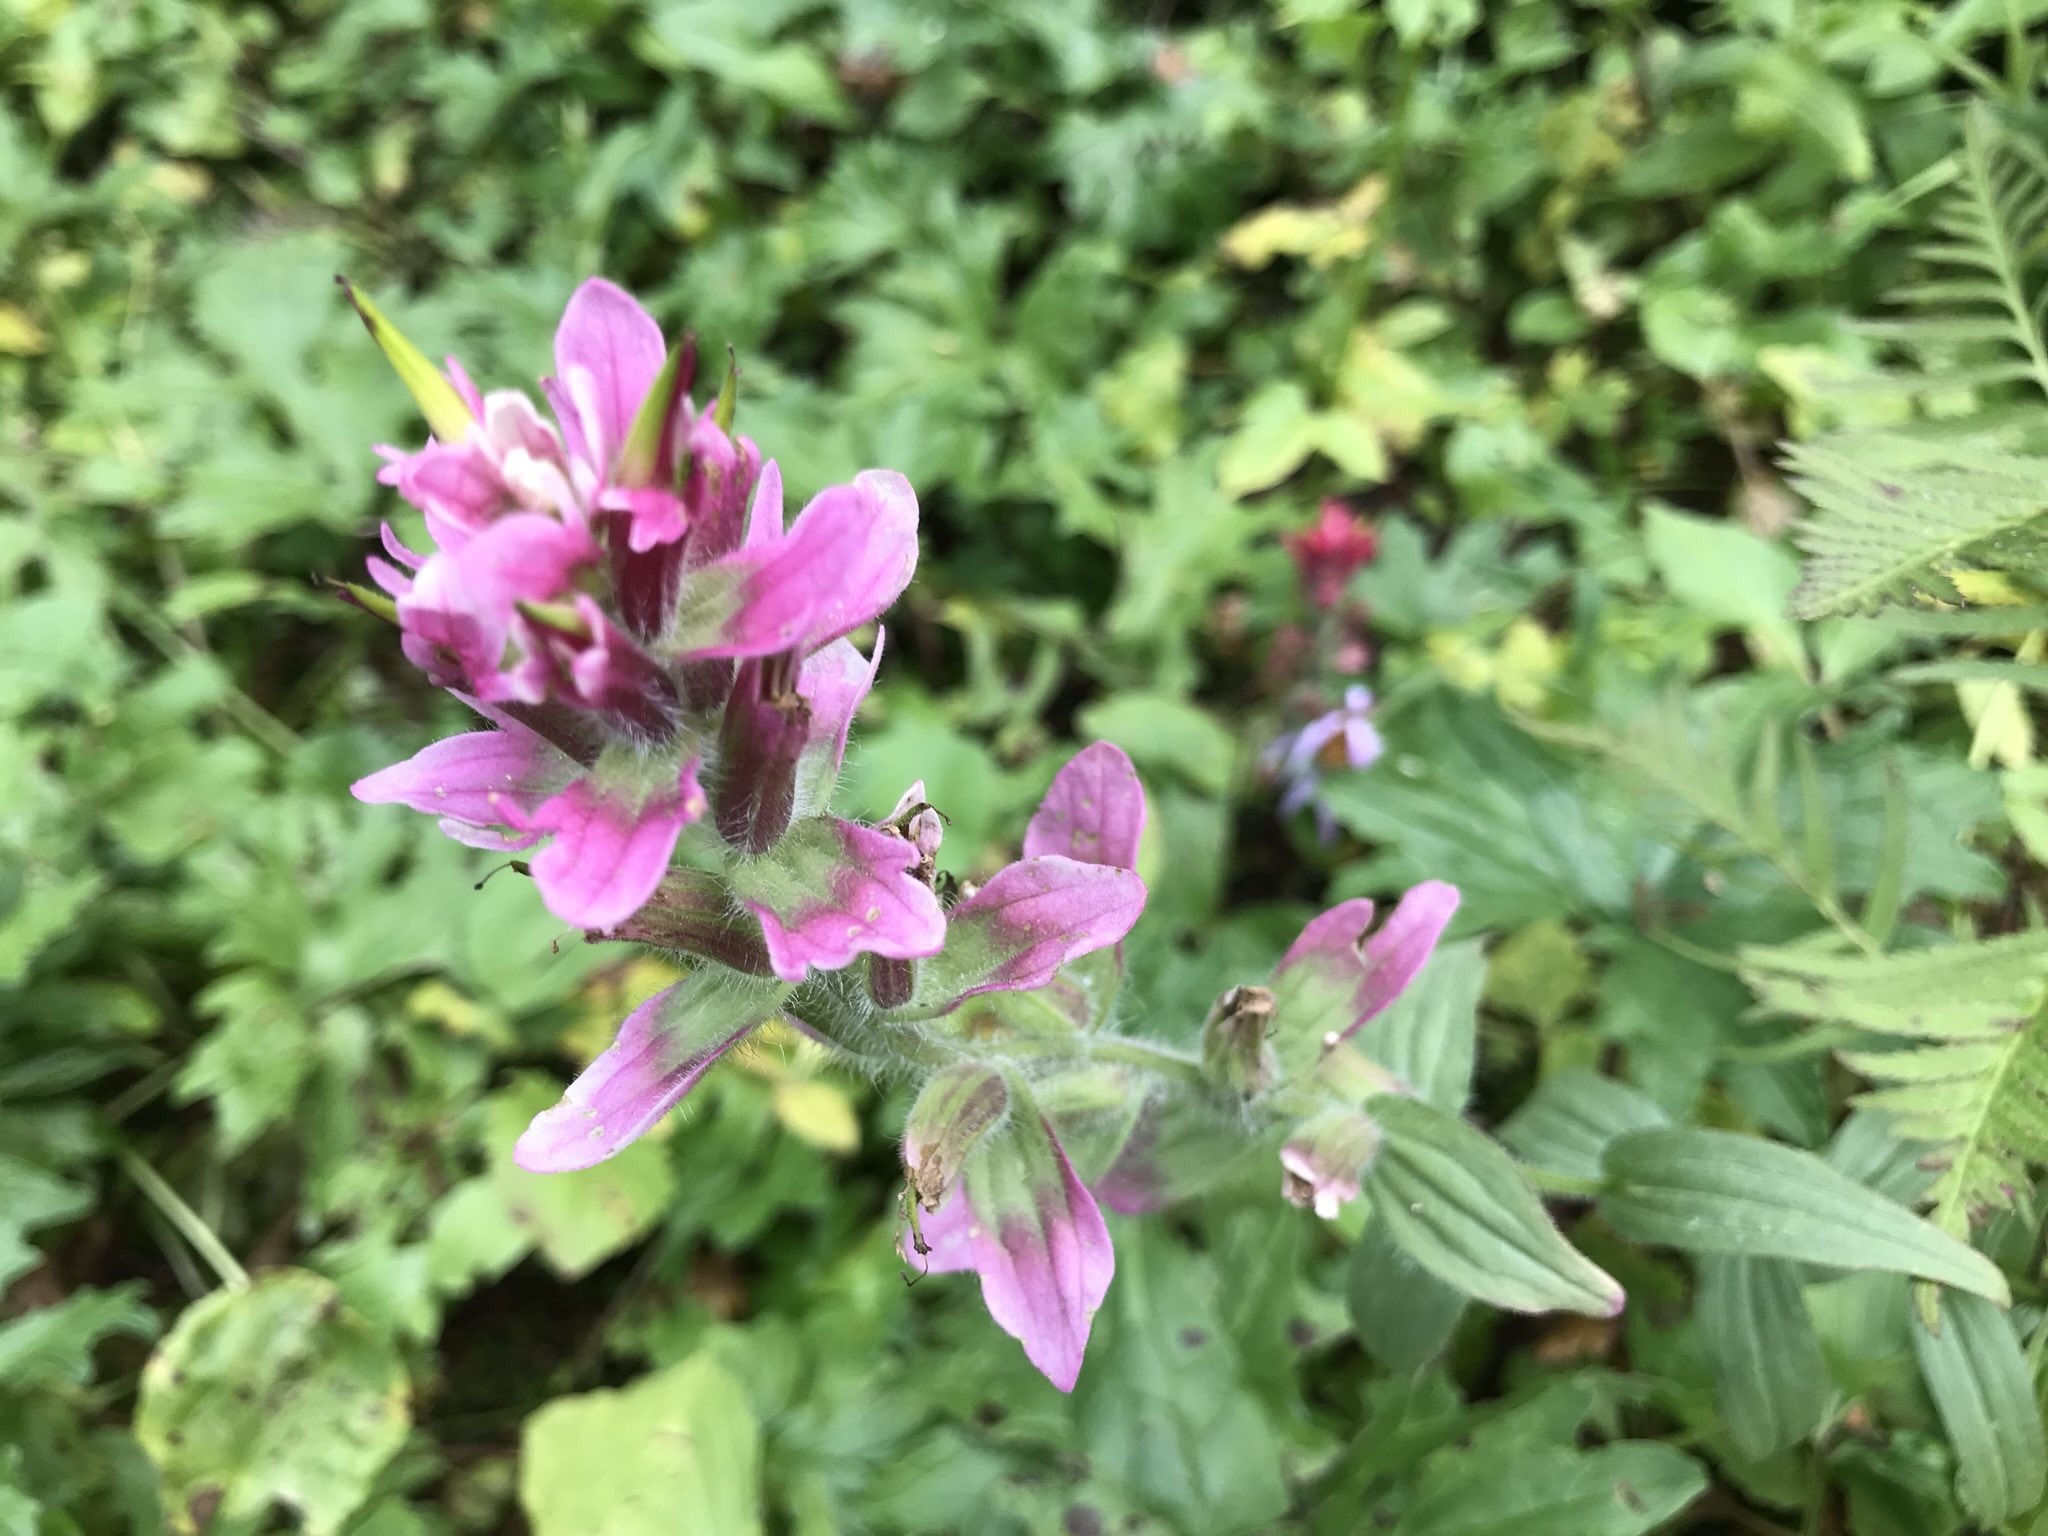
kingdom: Plantae
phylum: Tracheophyta
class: Magnoliopsida
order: Lamiales
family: Orobanchaceae
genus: Castilleja
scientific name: Castilleja rhexifolia
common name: Rocky mountain paintbrush
